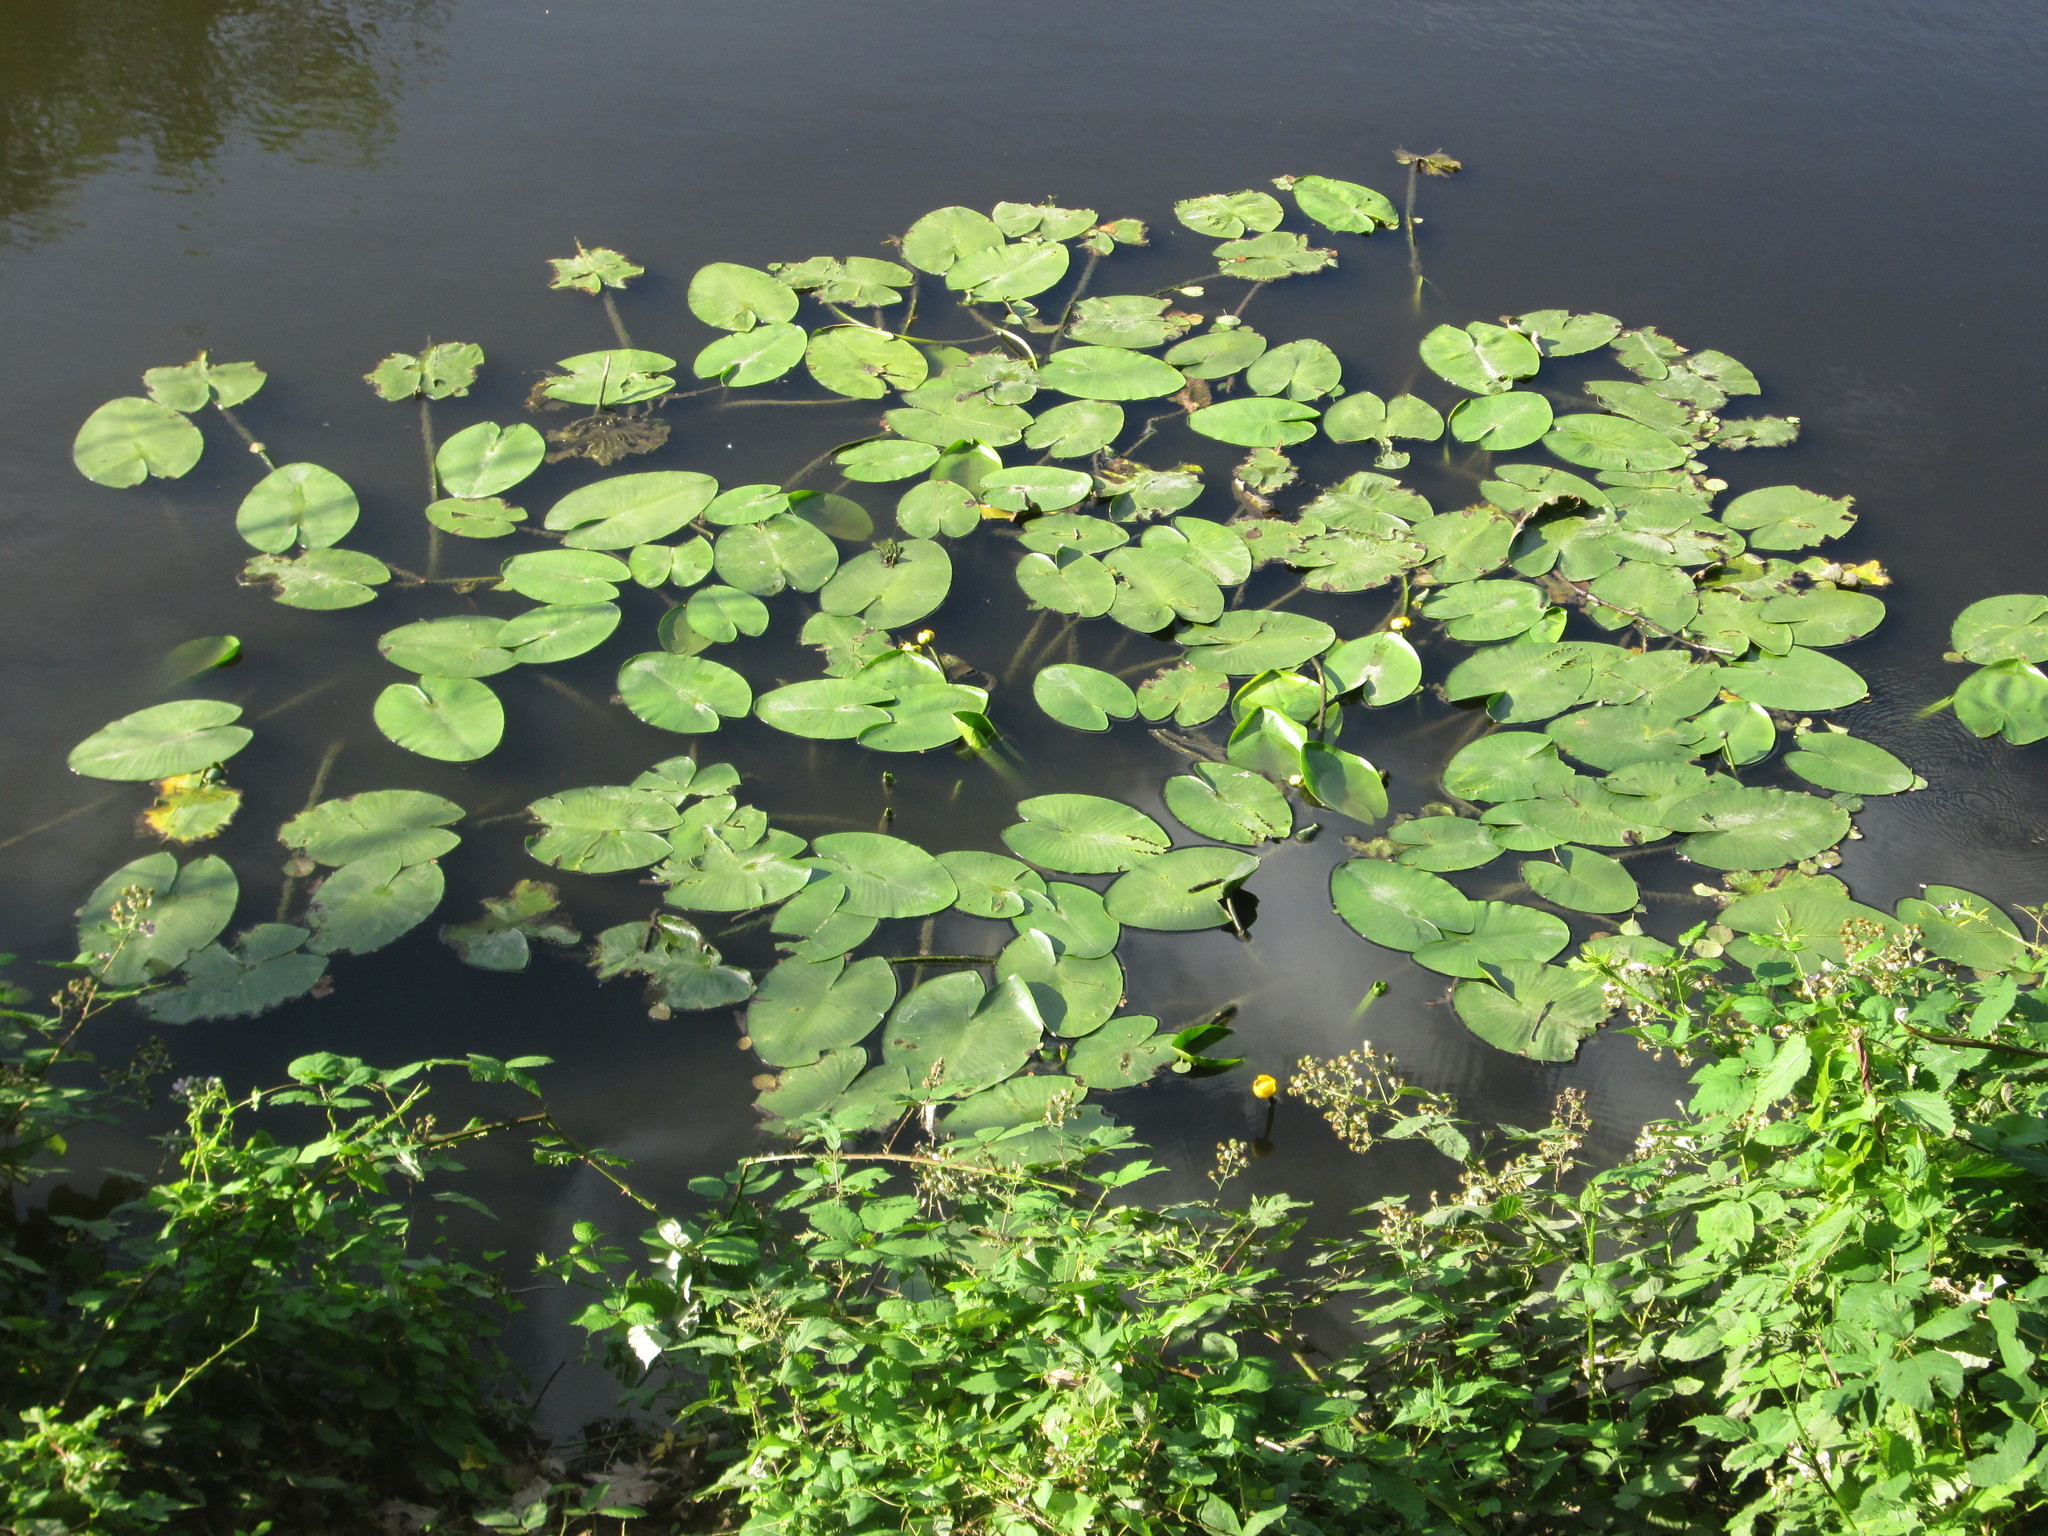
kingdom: Plantae
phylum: Tracheophyta
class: Magnoliopsida
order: Nymphaeales
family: Nymphaeaceae
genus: Nuphar
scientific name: Nuphar lutea
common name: Yellow water-lily
